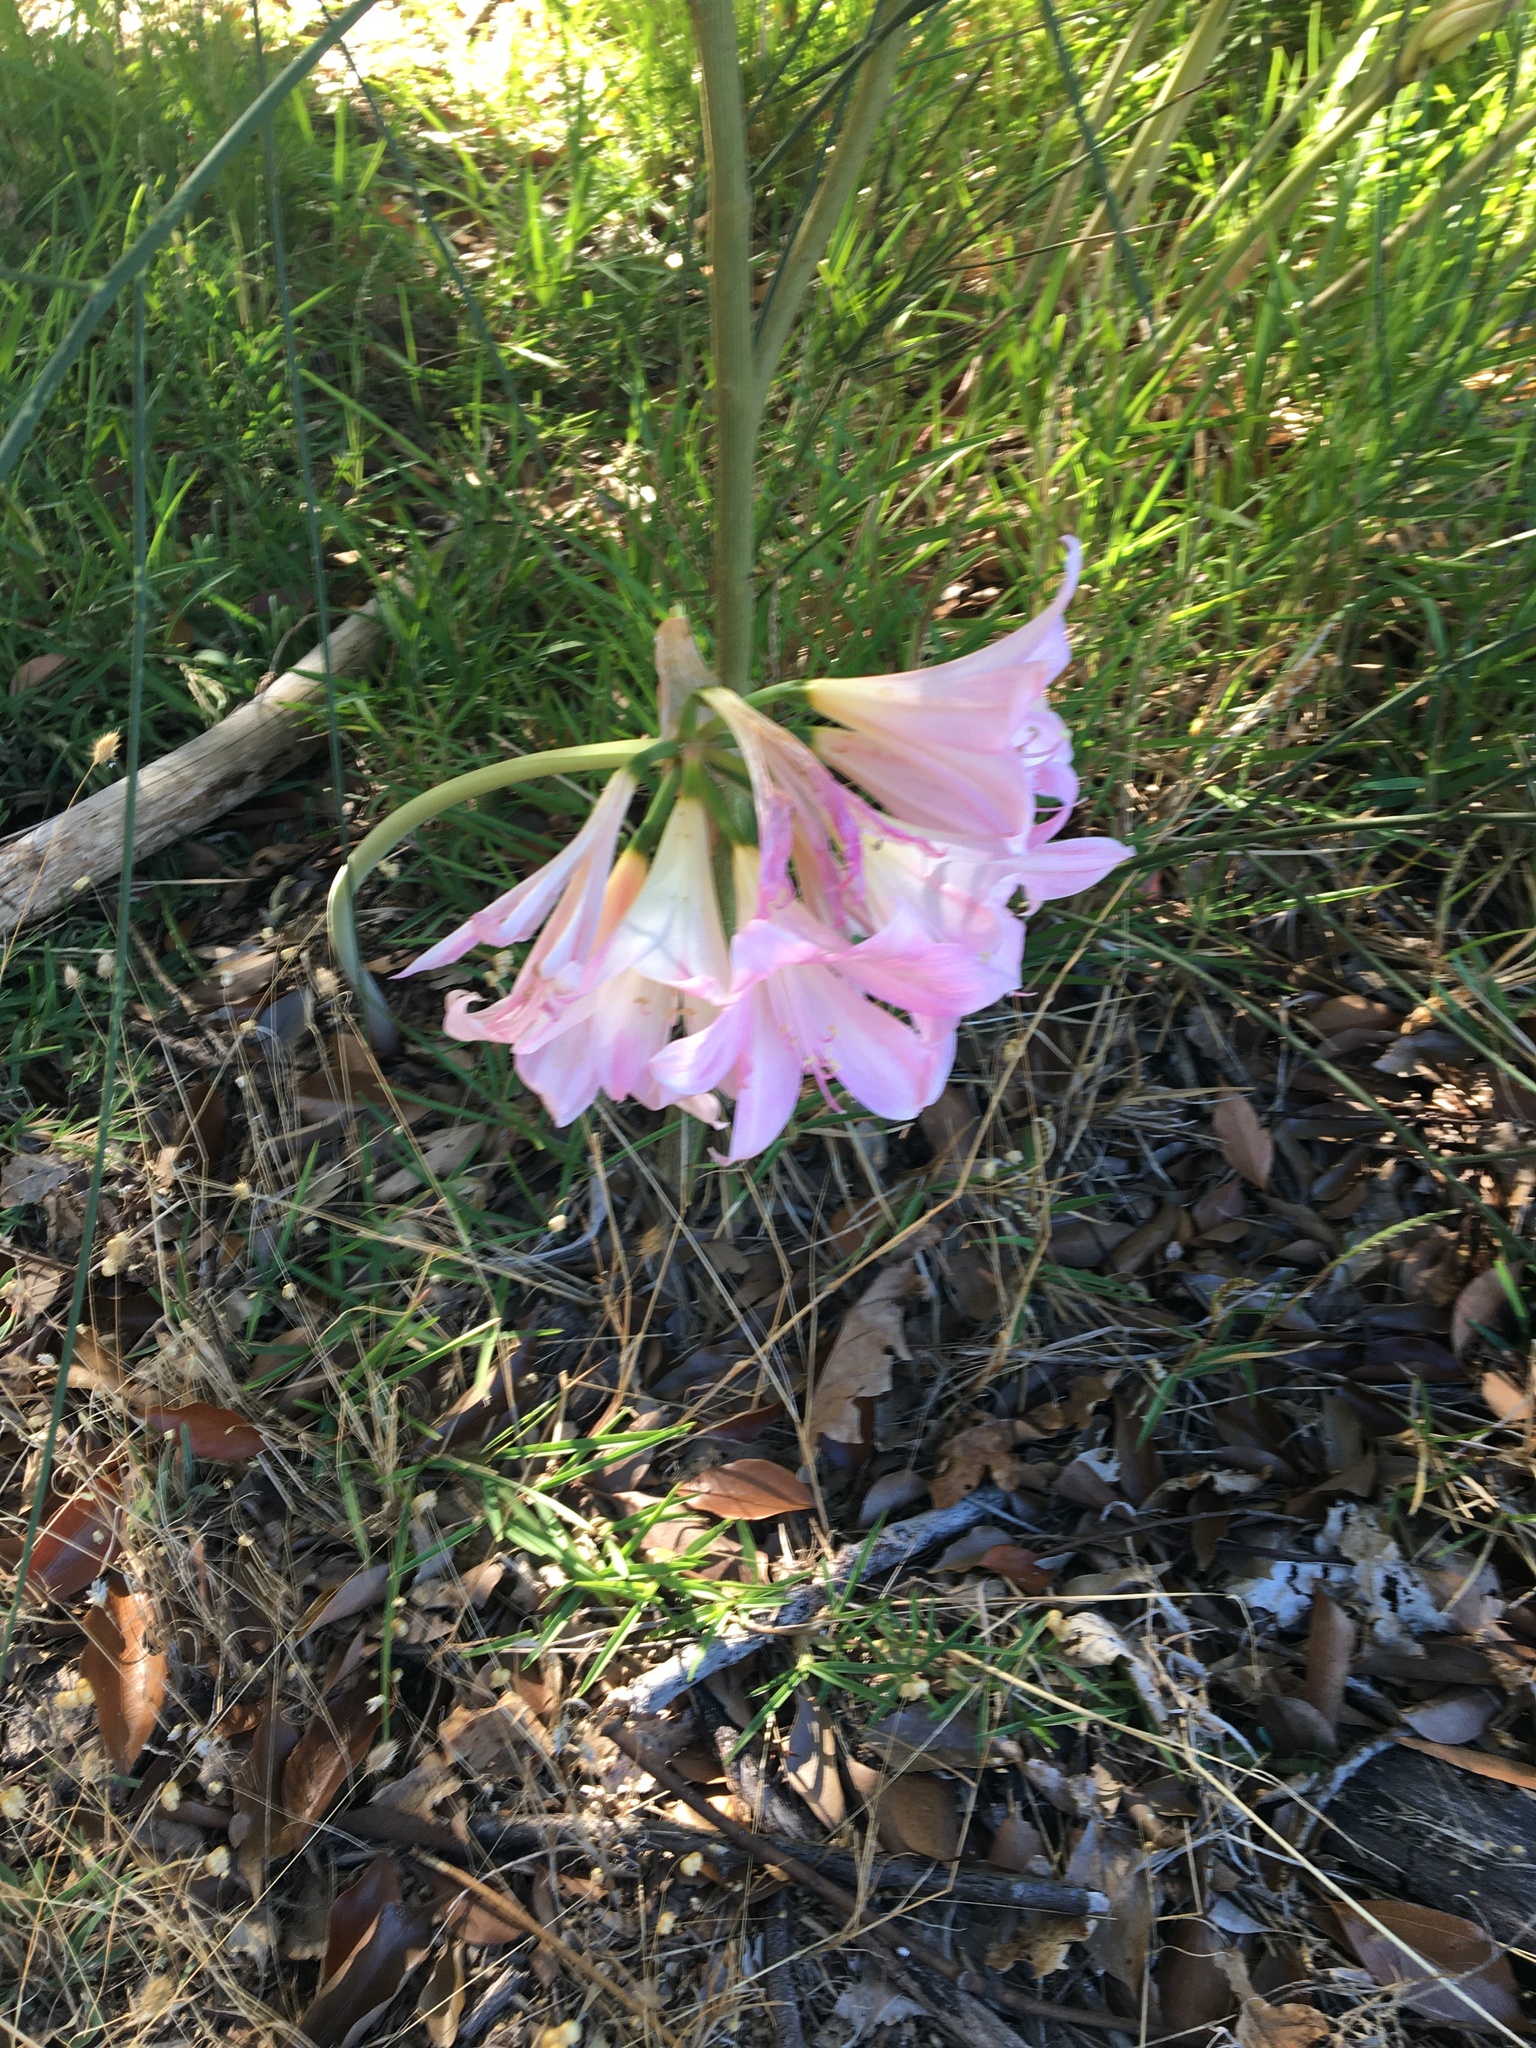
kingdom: Plantae
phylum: Tracheophyta
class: Liliopsida
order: Asparagales
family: Amaryllidaceae
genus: Amaryllis
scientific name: Amaryllis belladonna
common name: Jersey lily
